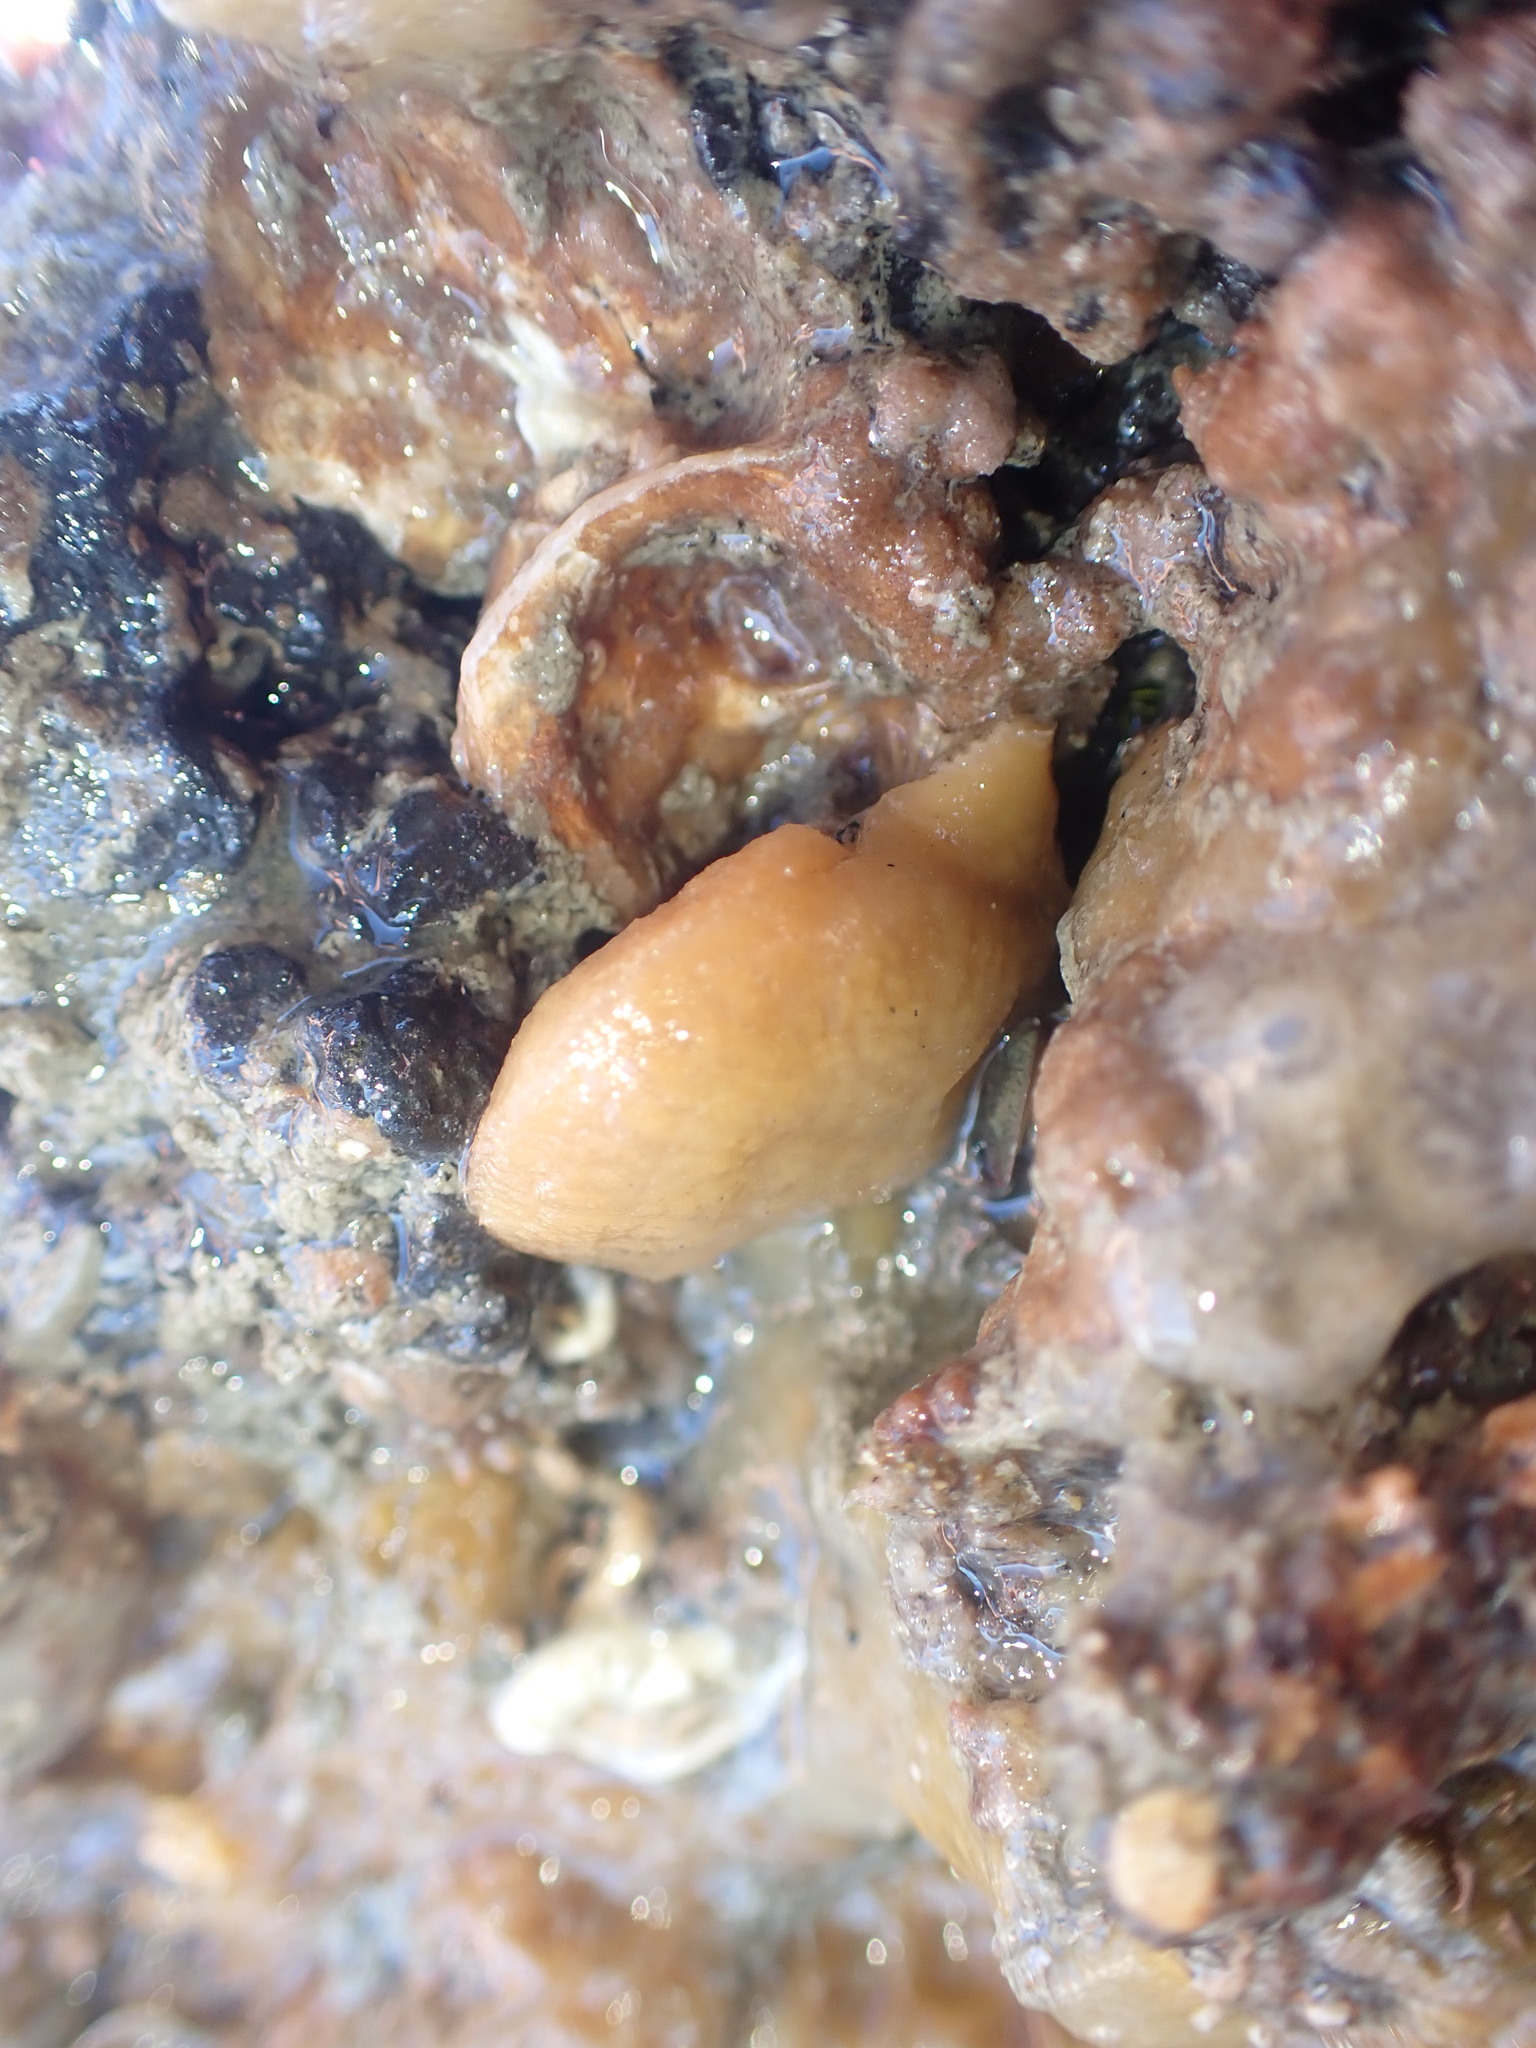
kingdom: Animalia
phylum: Mollusca
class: Bivalvia
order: Pectinida
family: Pectinidae
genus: Talochlamys
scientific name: Talochlamys zelandiae
